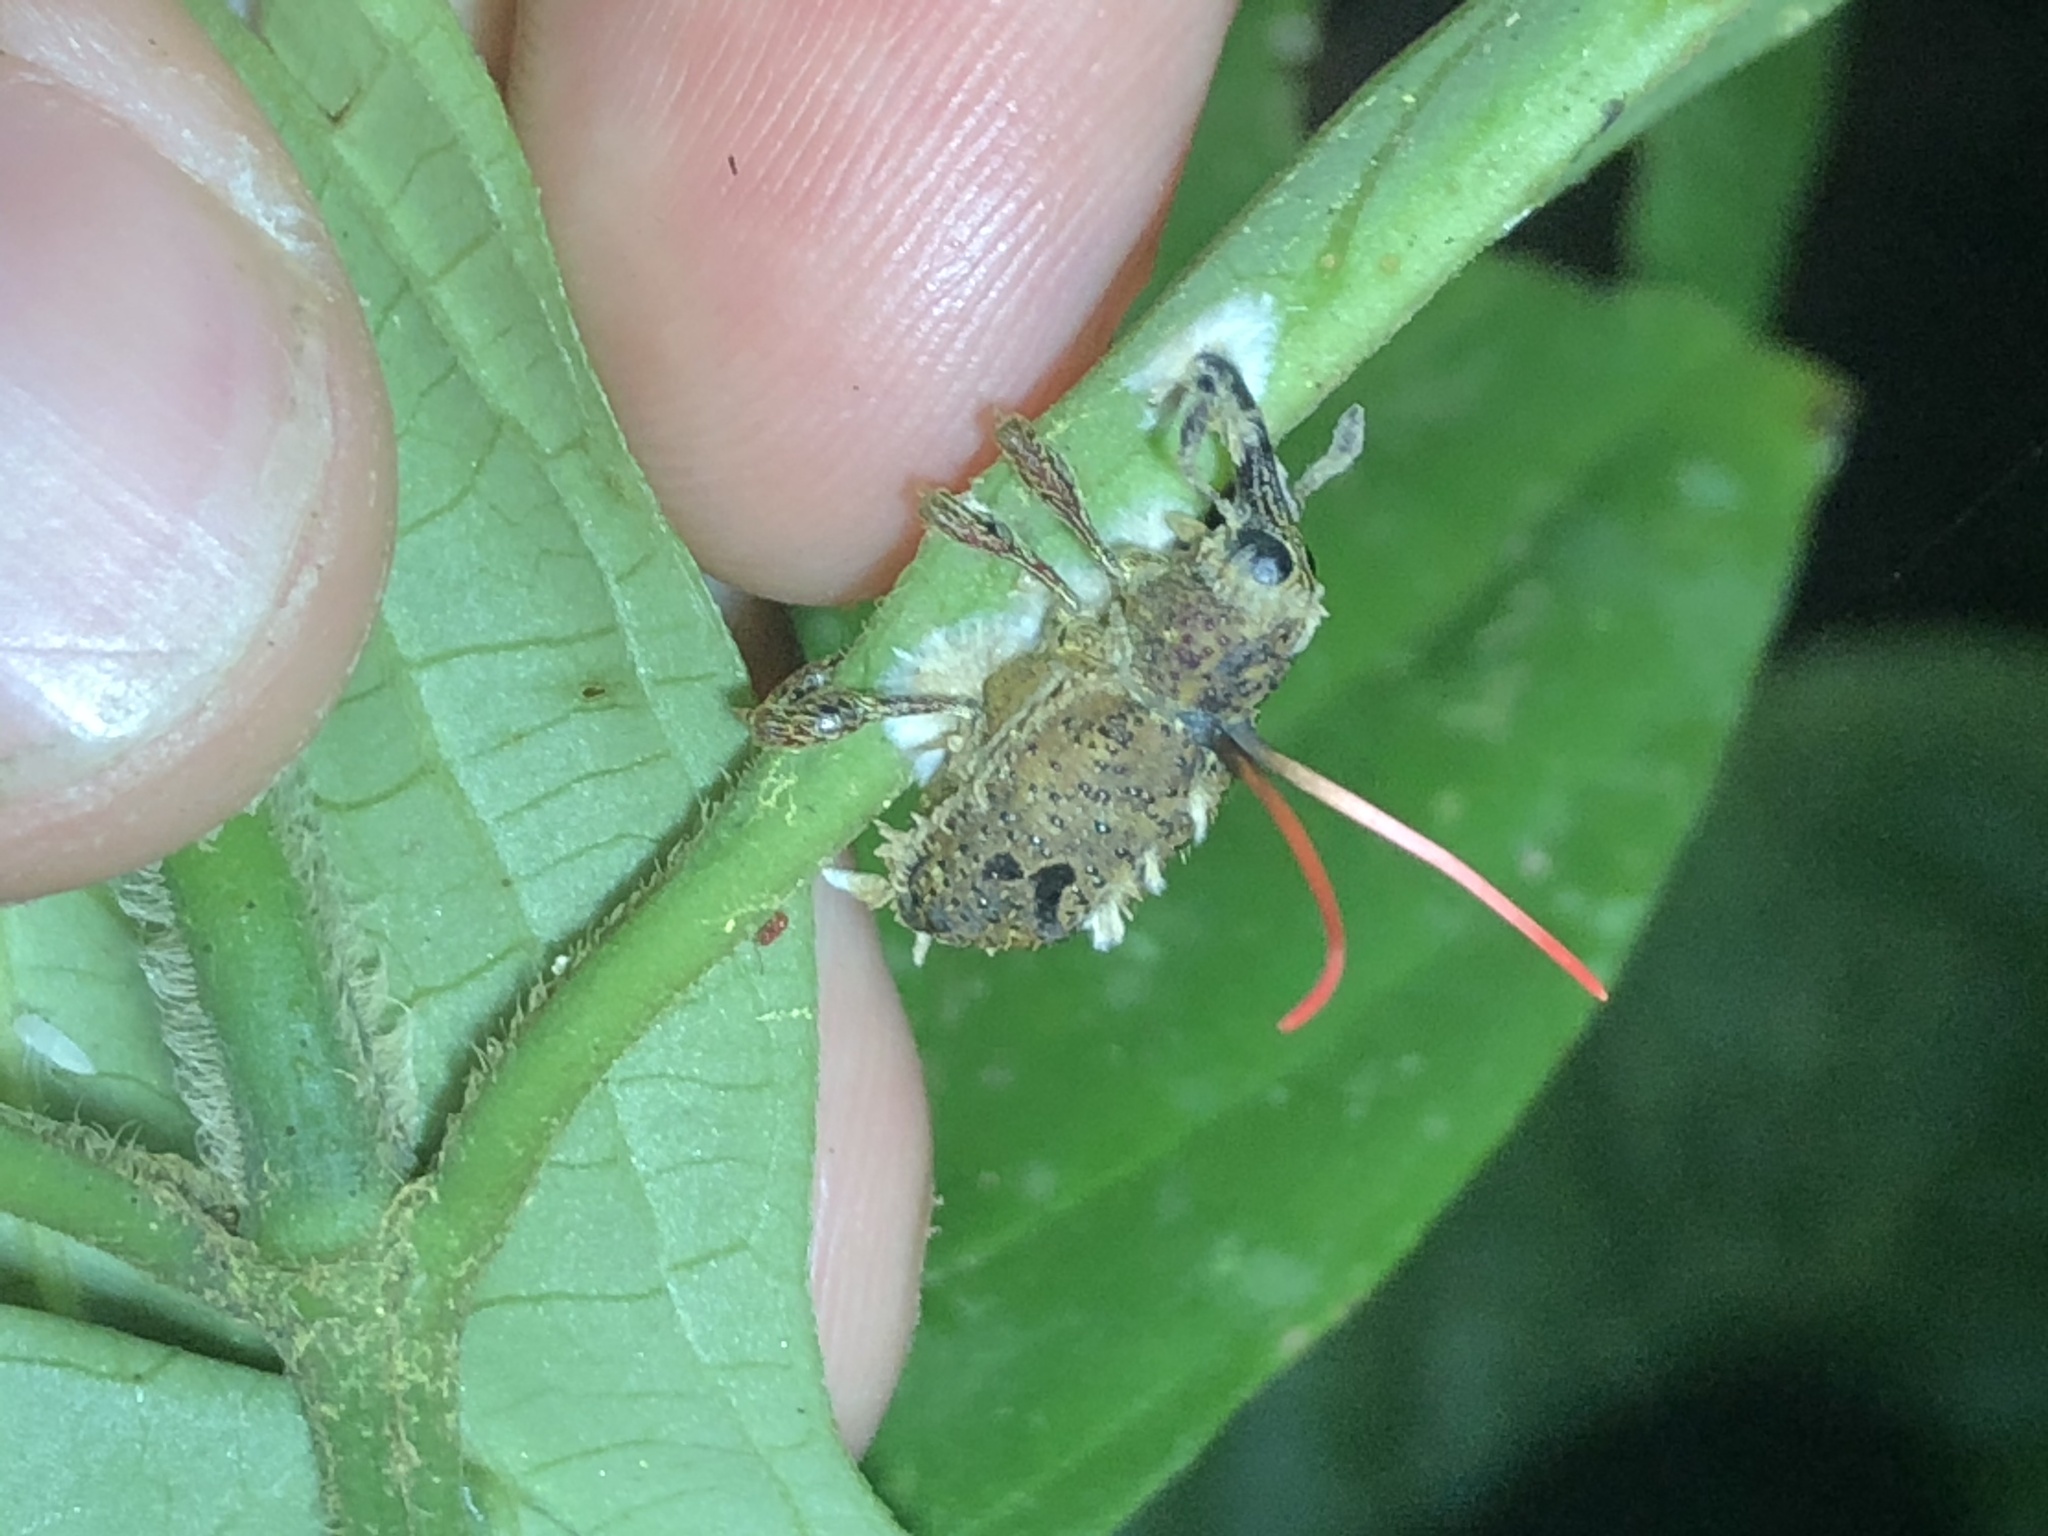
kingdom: Fungi
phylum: Ascomycota
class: Sordariomycetes
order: Hypocreales
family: Ophiocordycipitaceae
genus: Ophiocordyceps
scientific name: Ophiocordyceps curculionum
